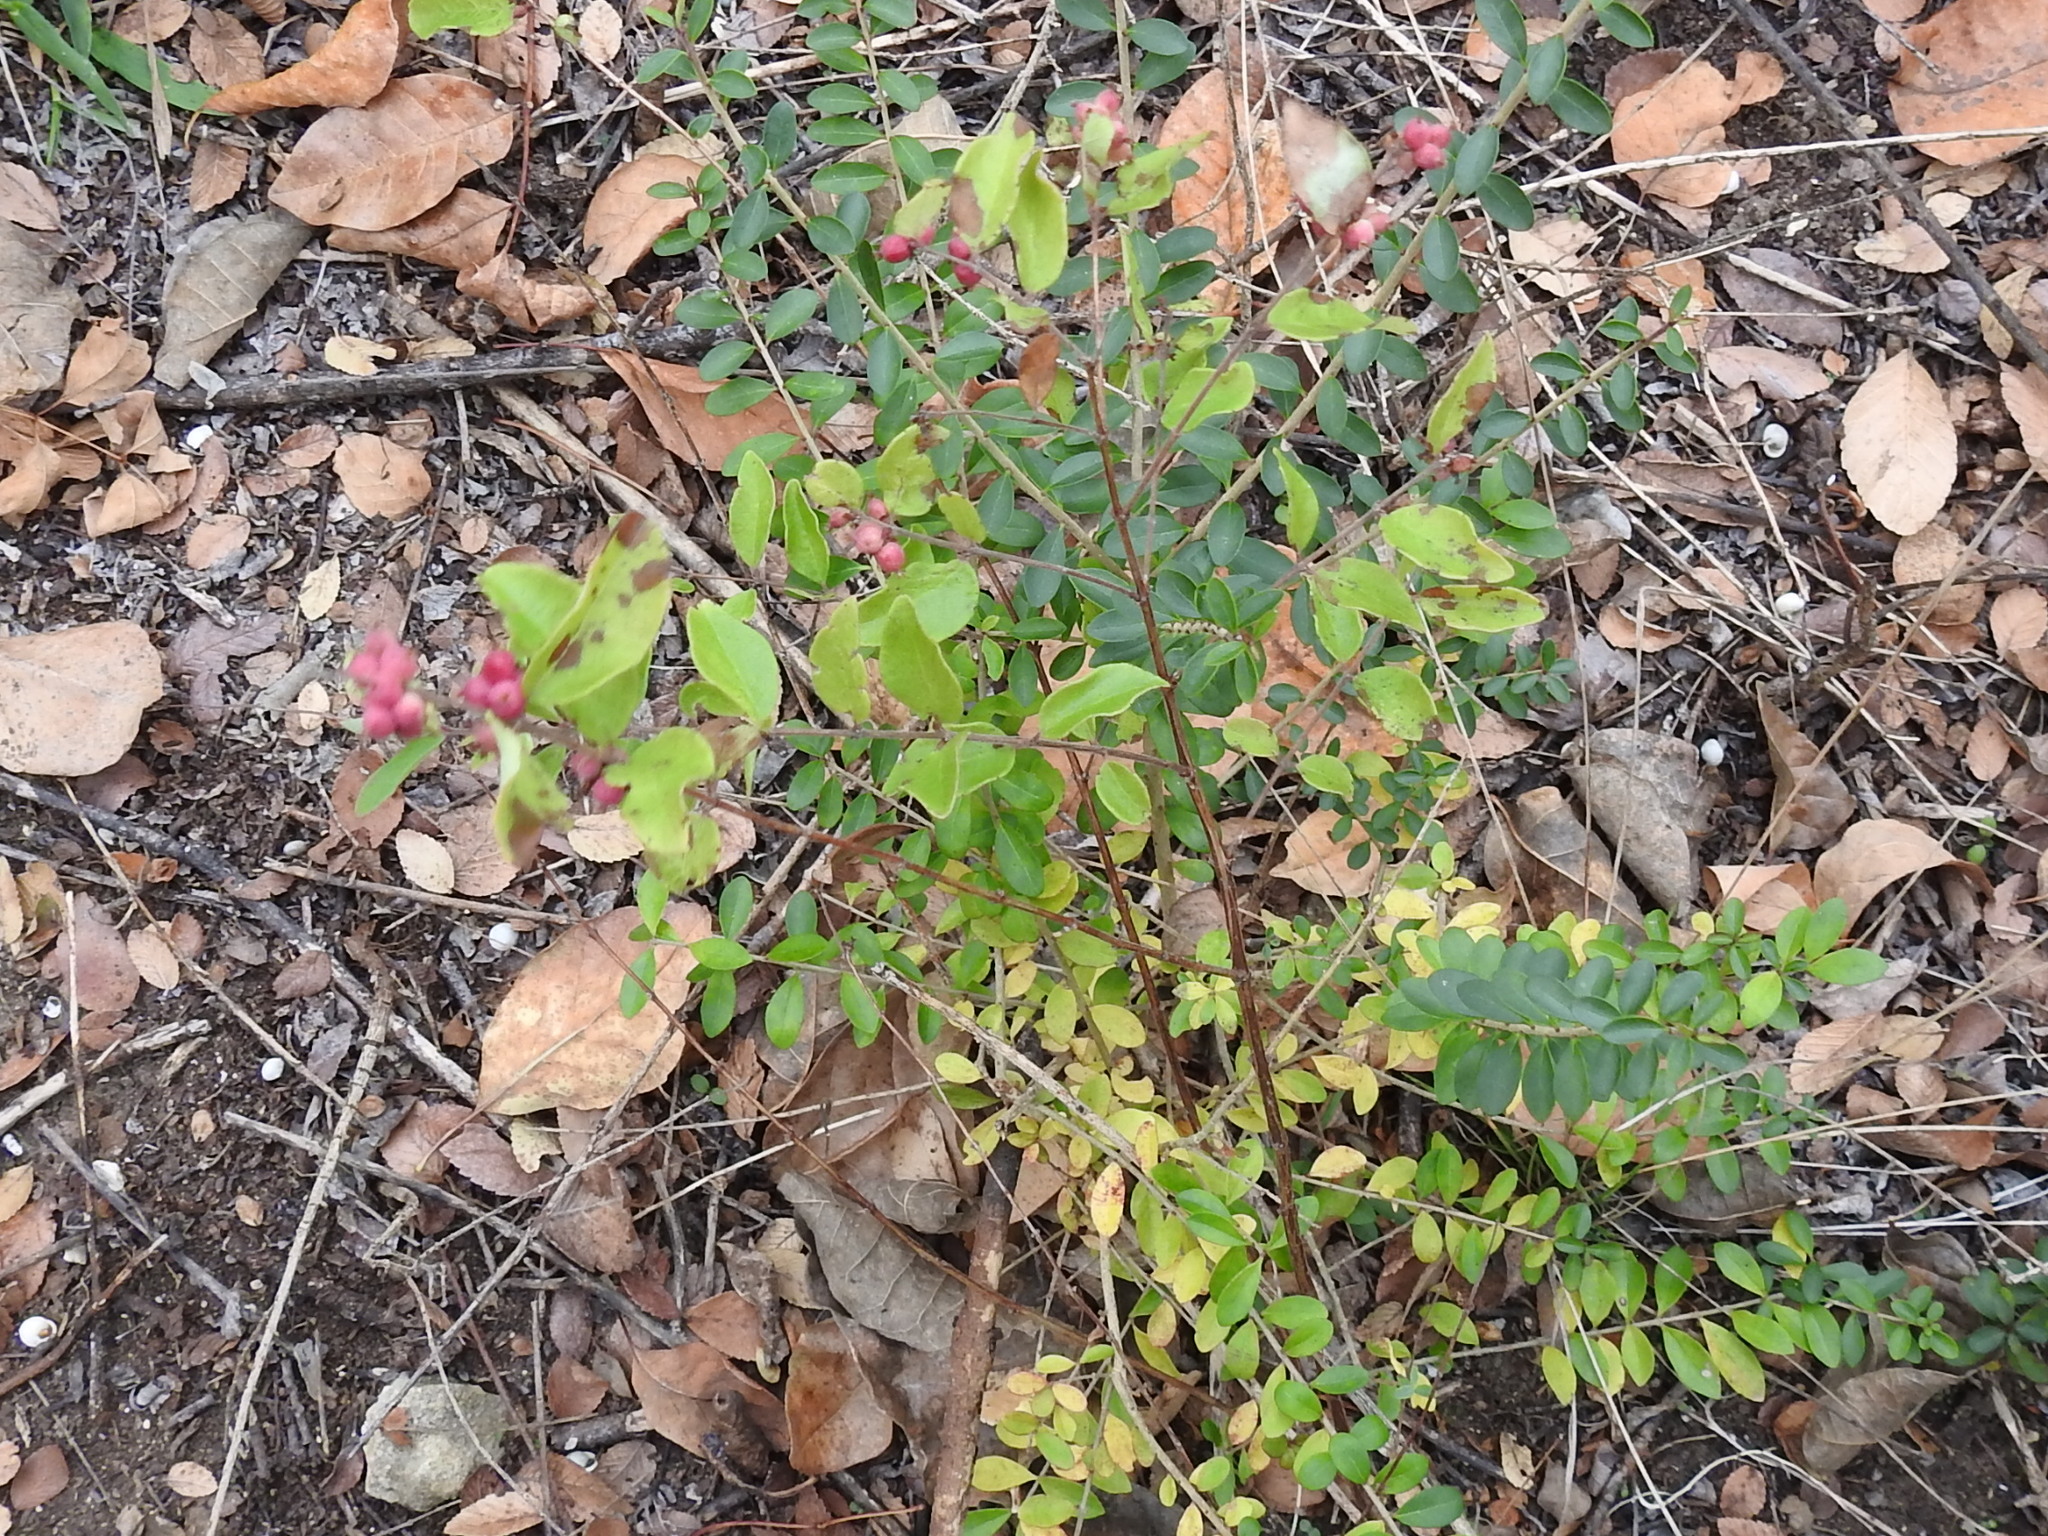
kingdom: Plantae
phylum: Tracheophyta
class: Magnoliopsida
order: Dipsacales
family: Caprifoliaceae
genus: Symphoricarpos
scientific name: Symphoricarpos orbiculatus
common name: Coralberry
